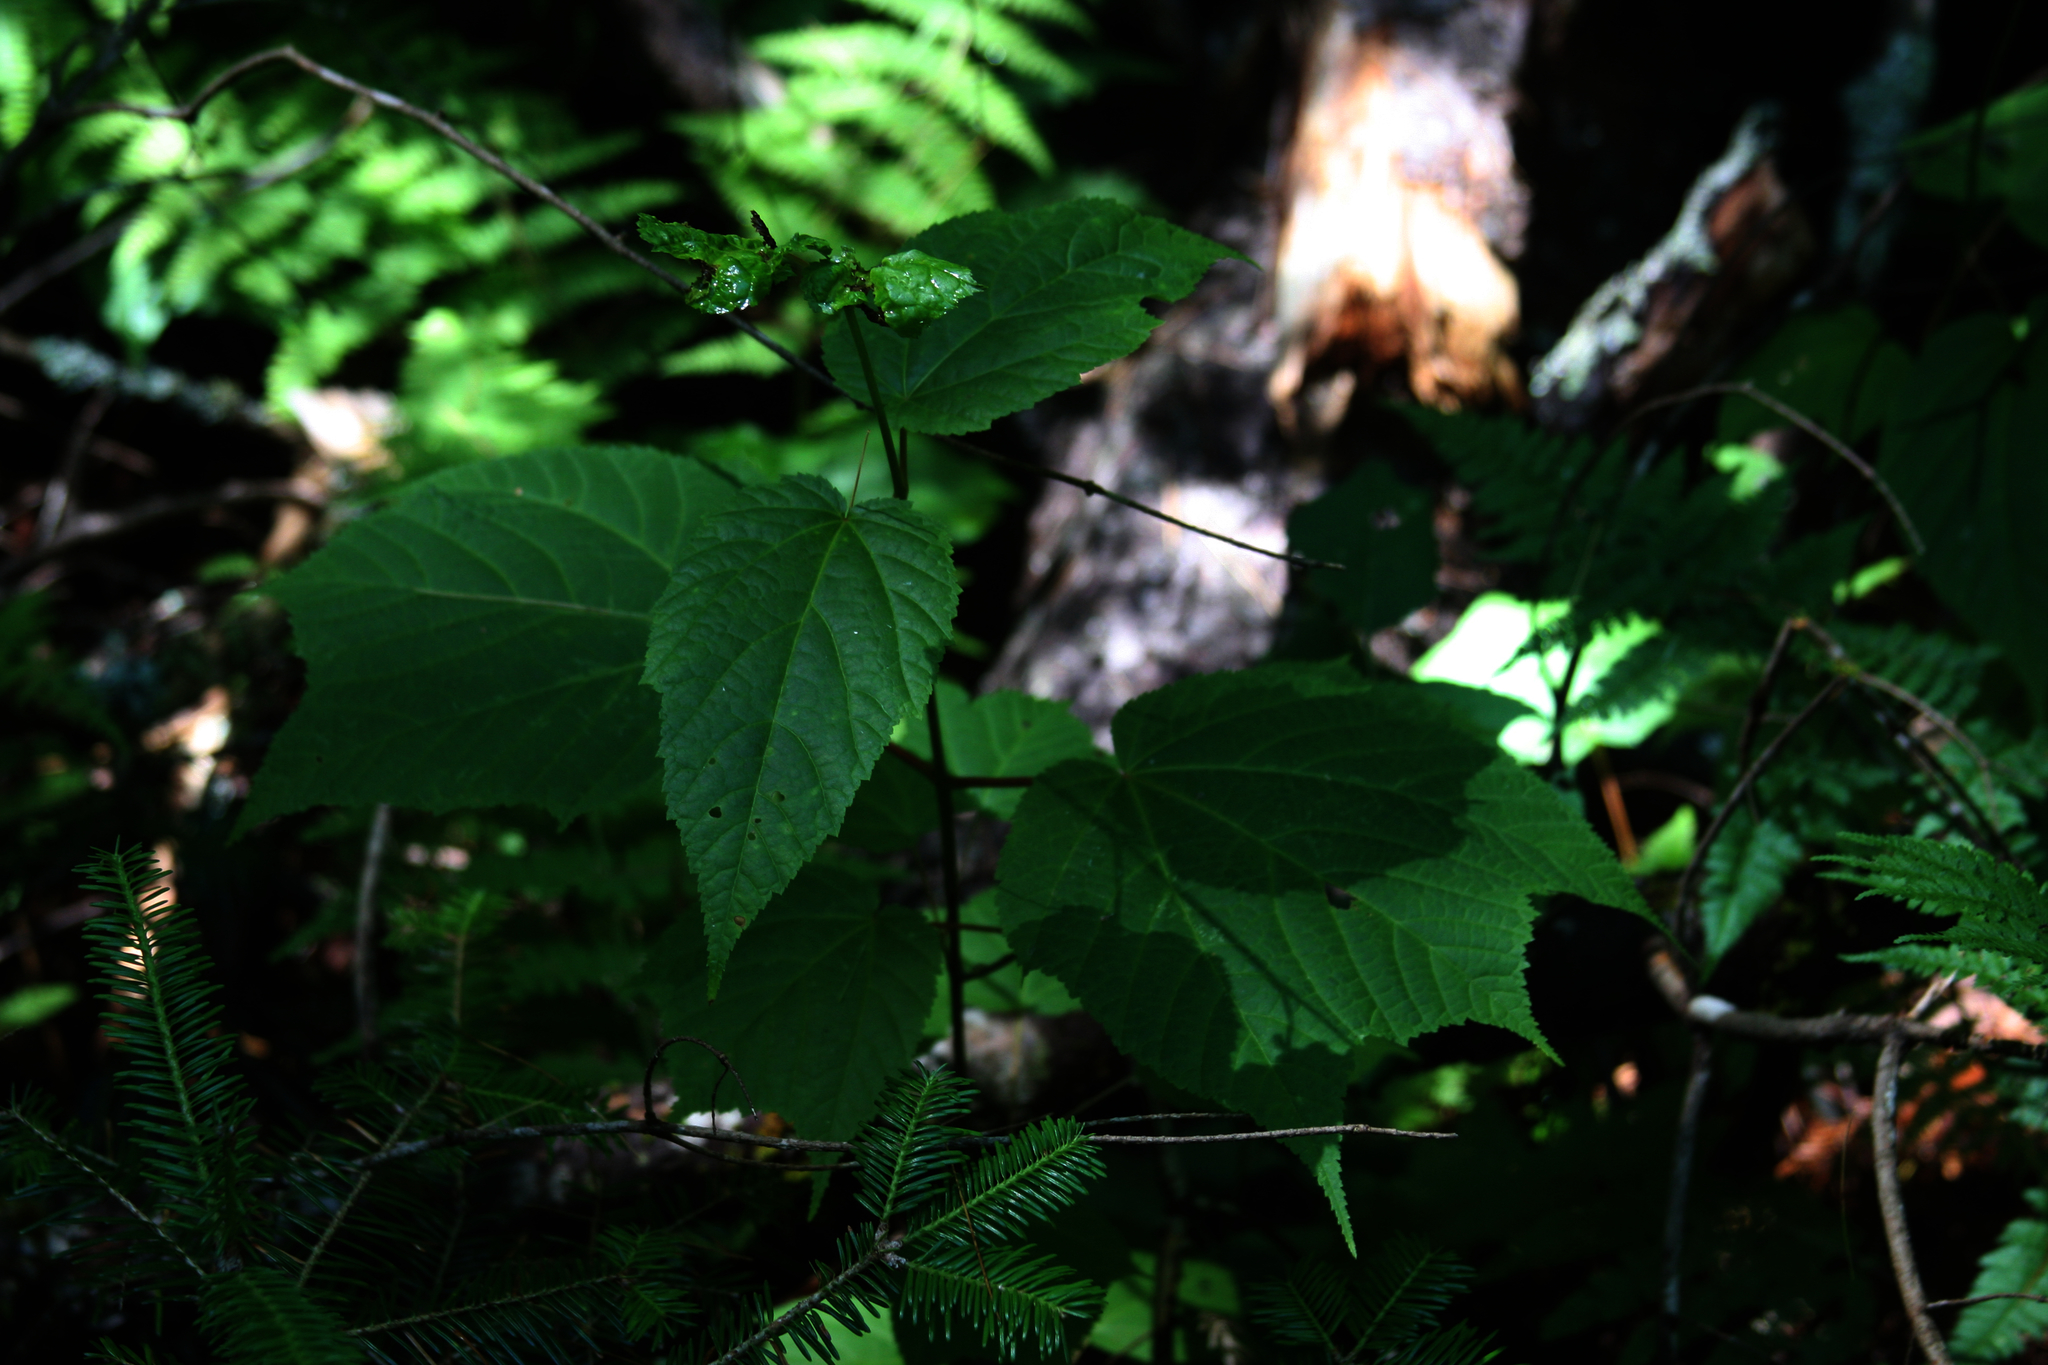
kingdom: Plantae
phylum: Tracheophyta
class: Magnoliopsida
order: Sapindales
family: Sapindaceae
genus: Acer
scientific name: Acer pensylvanicum
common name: Moosewood
